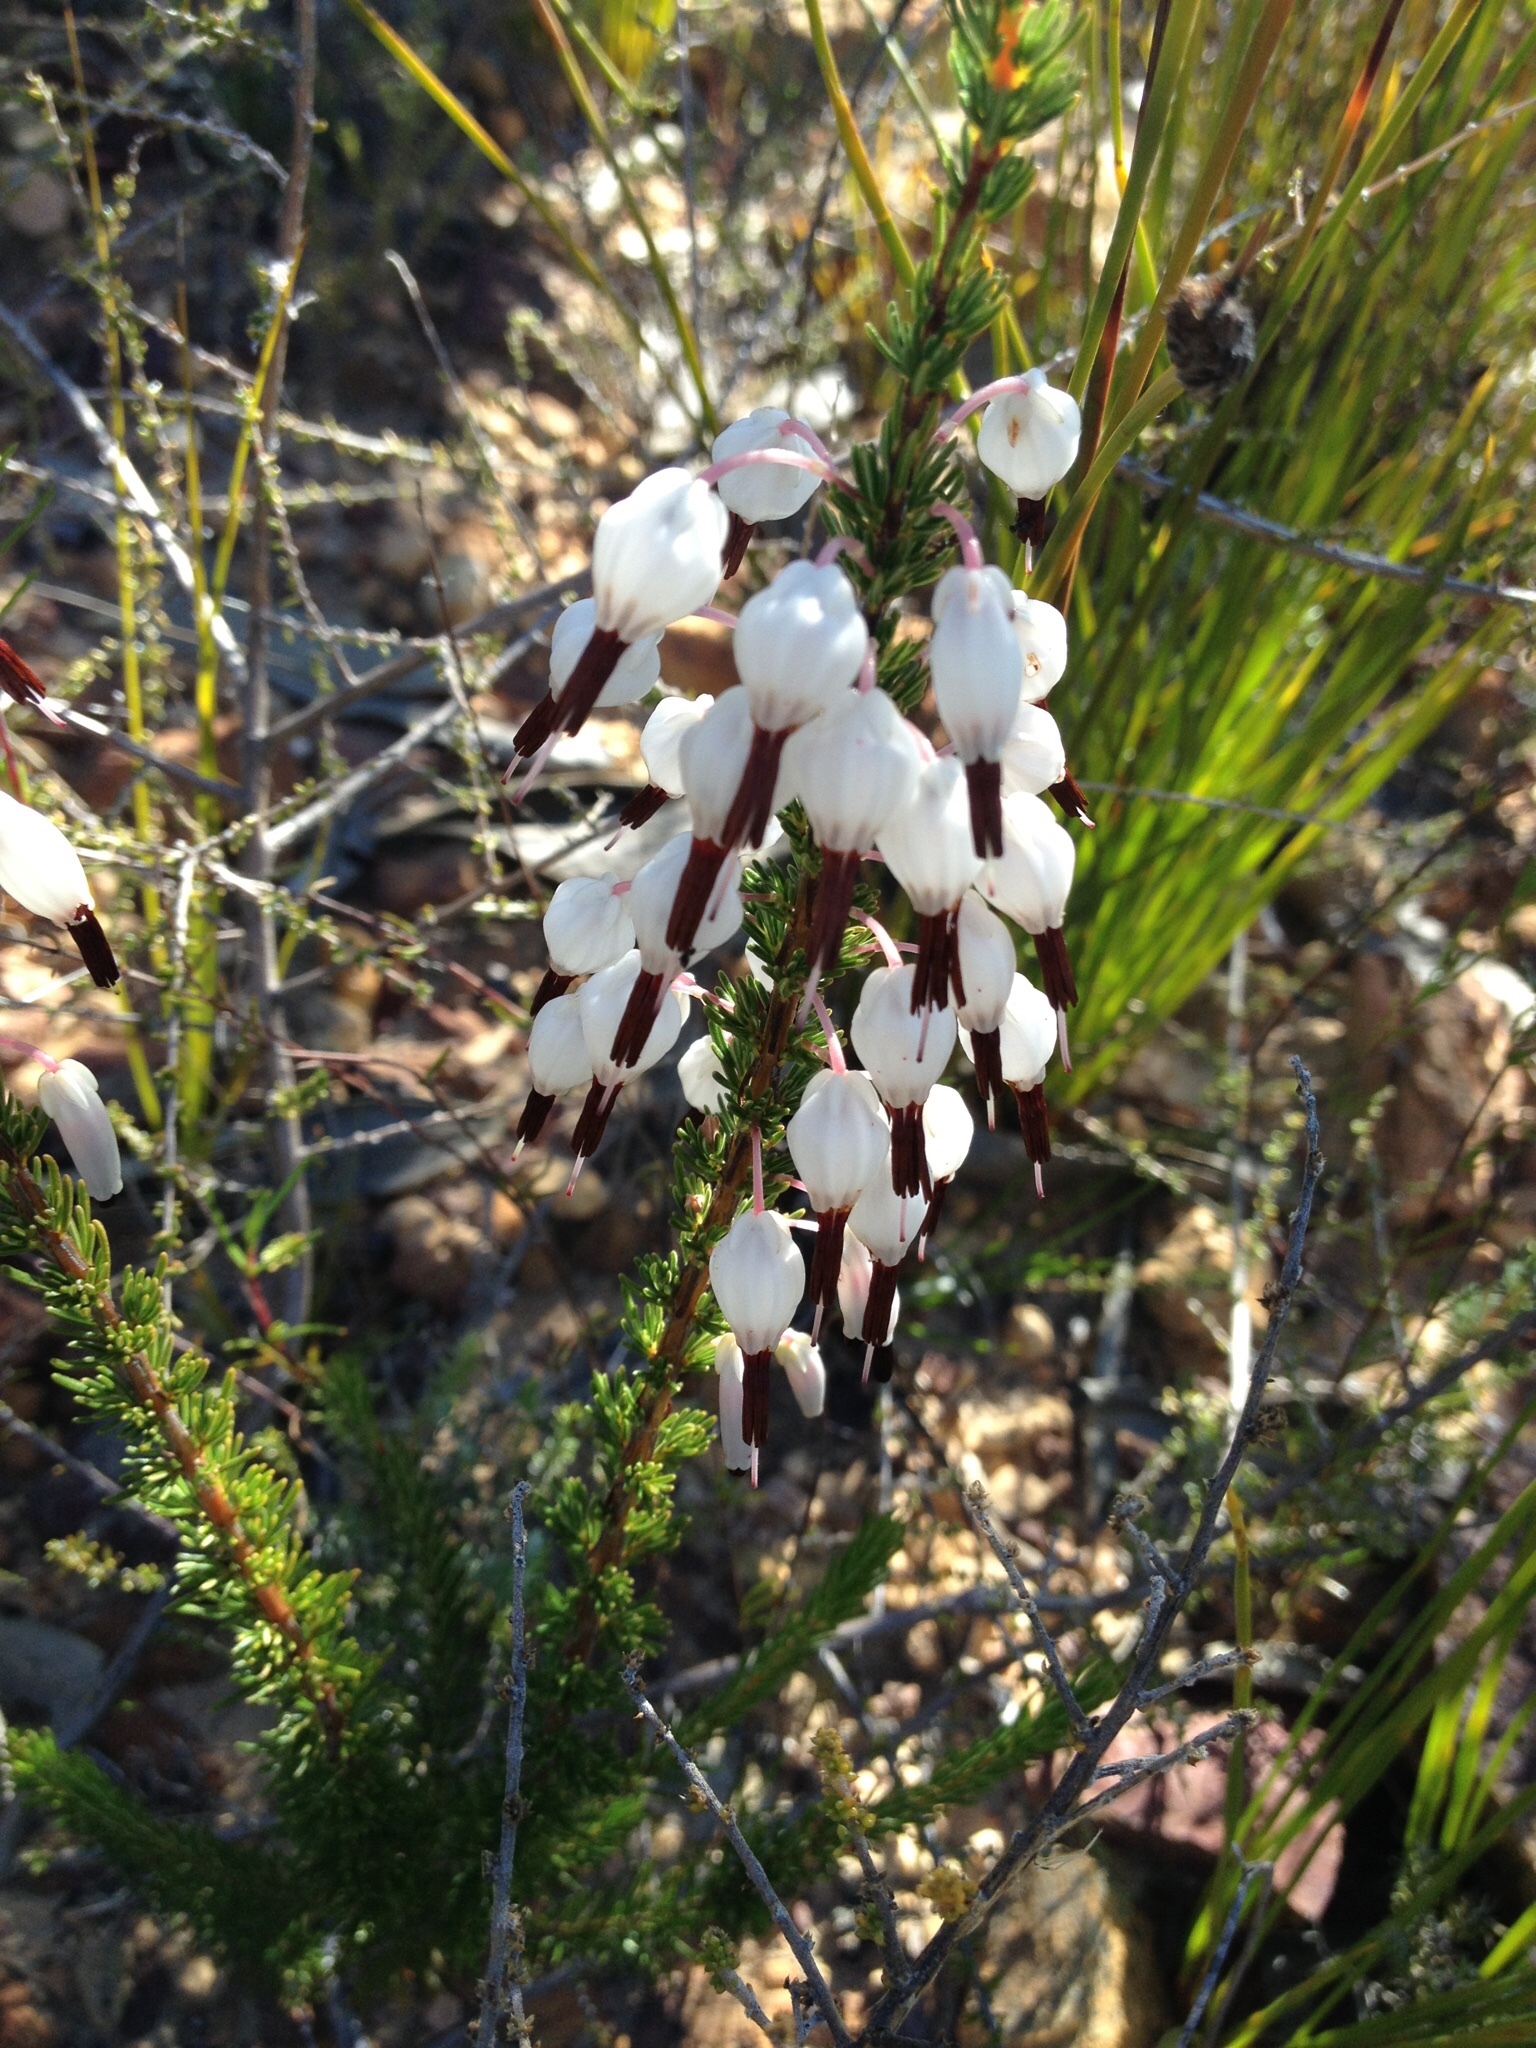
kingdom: Plantae
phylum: Tracheophyta
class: Magnoliopsida
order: Ericales
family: Ericaceae
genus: Erica
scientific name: Erica plukenetii
